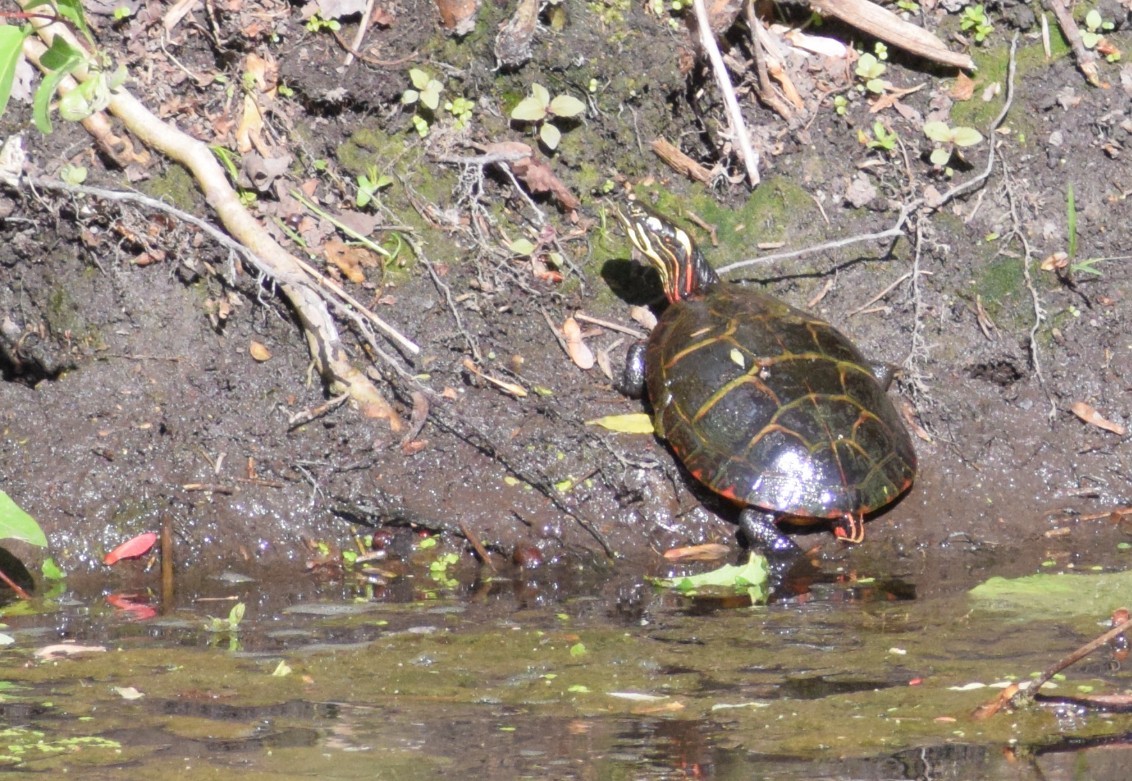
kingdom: Animalia
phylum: Chordata
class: Testudines
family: Emydidae
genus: Chrysemys
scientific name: Chrysemys picta
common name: Painted turtle
